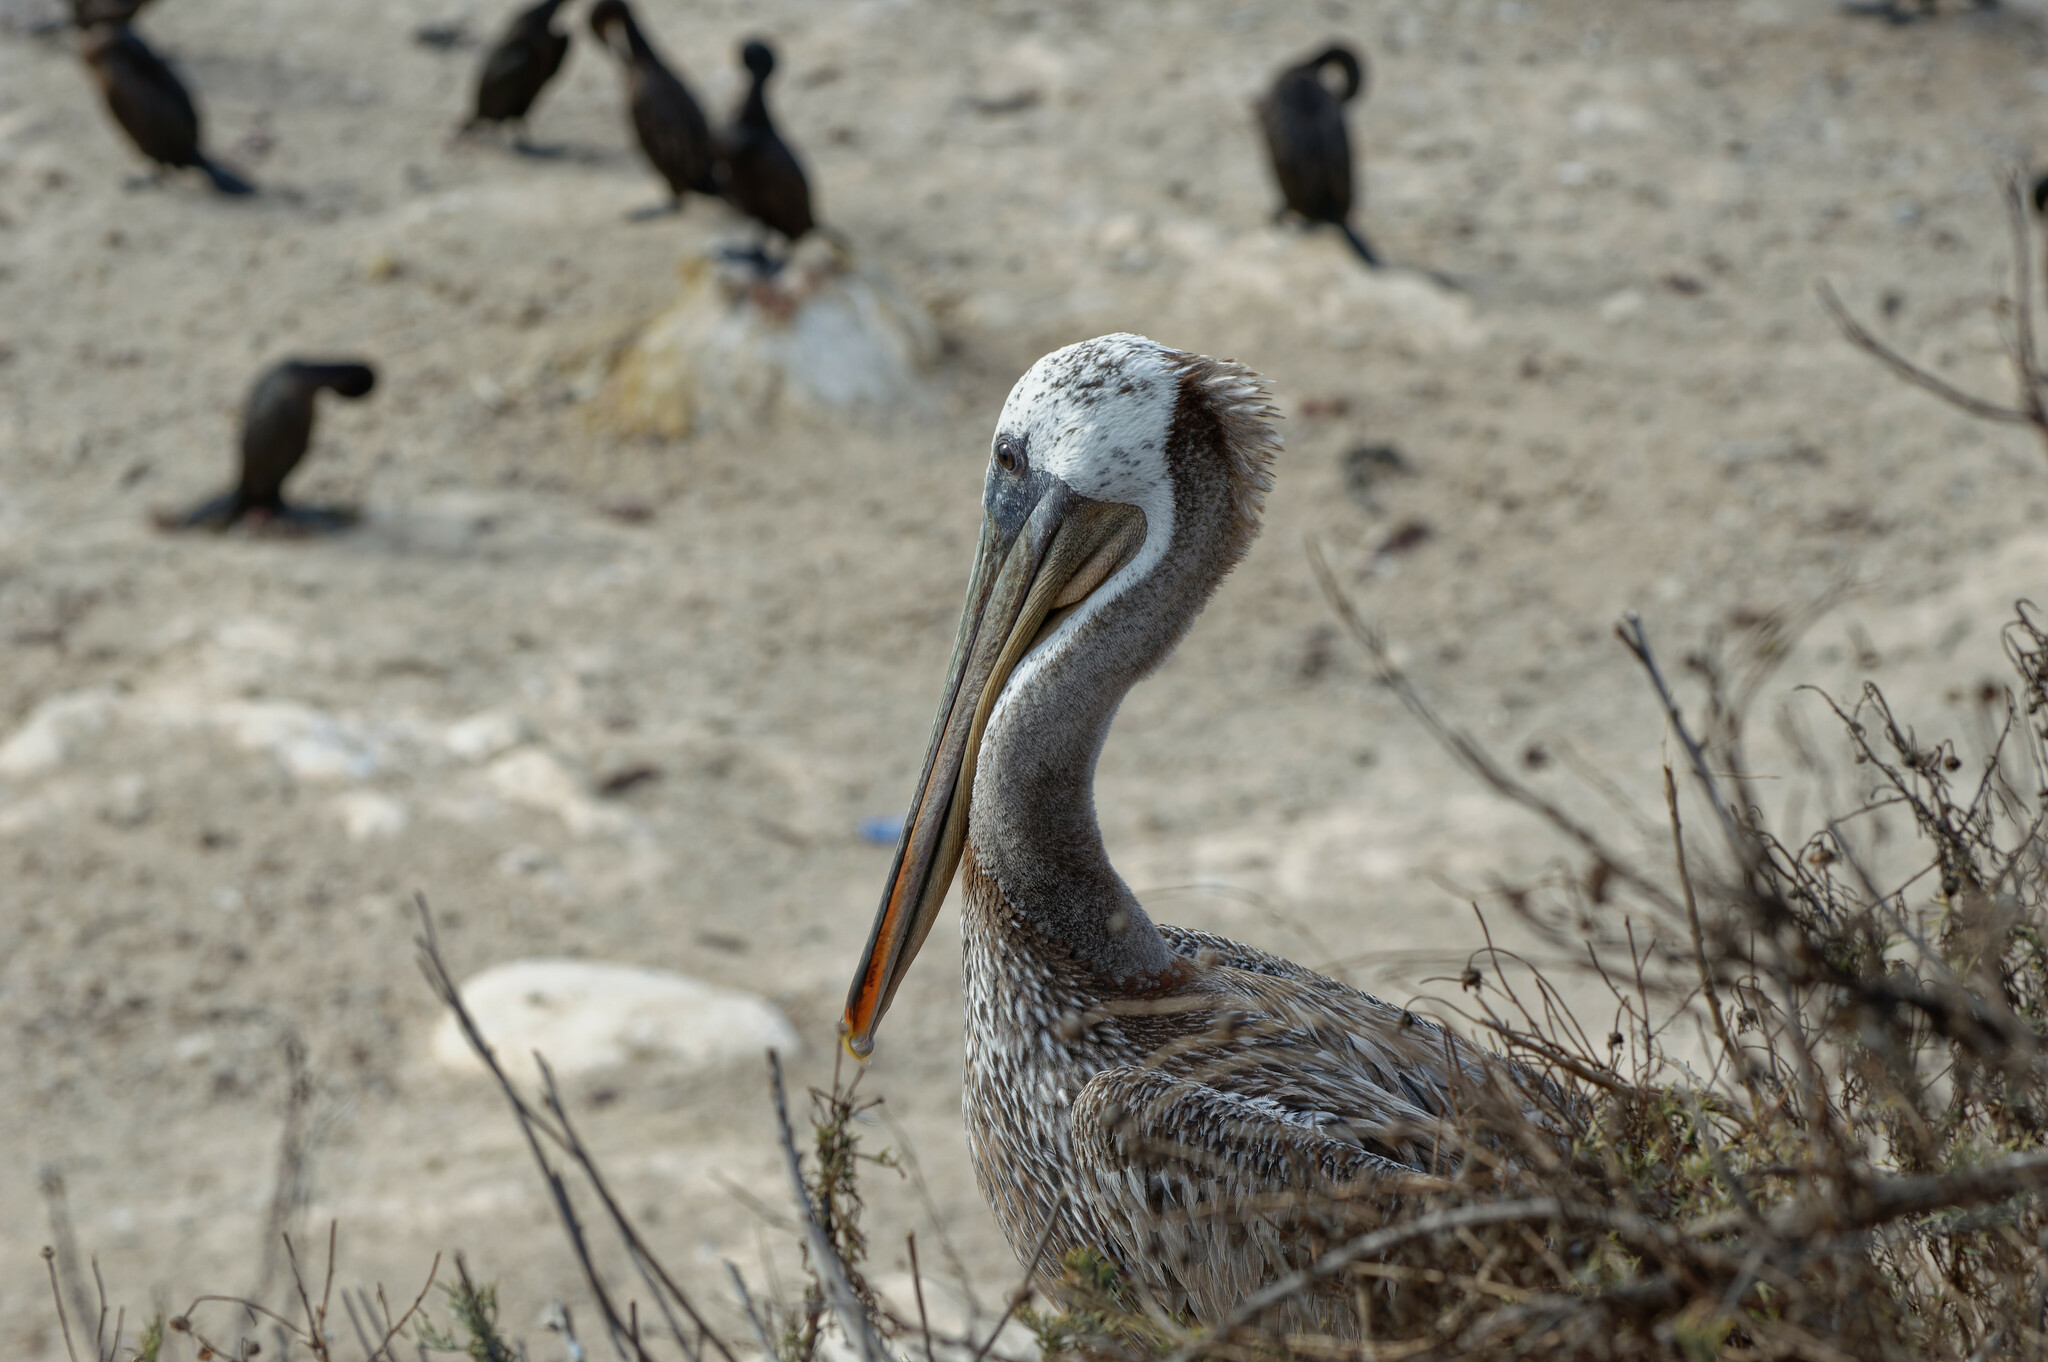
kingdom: Animalia
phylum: Chordata
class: Aves
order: Pelecaniformes
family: Pelecanidae
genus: Pelecanus
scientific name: Pelecanus occidentalis
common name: Brown pelican
